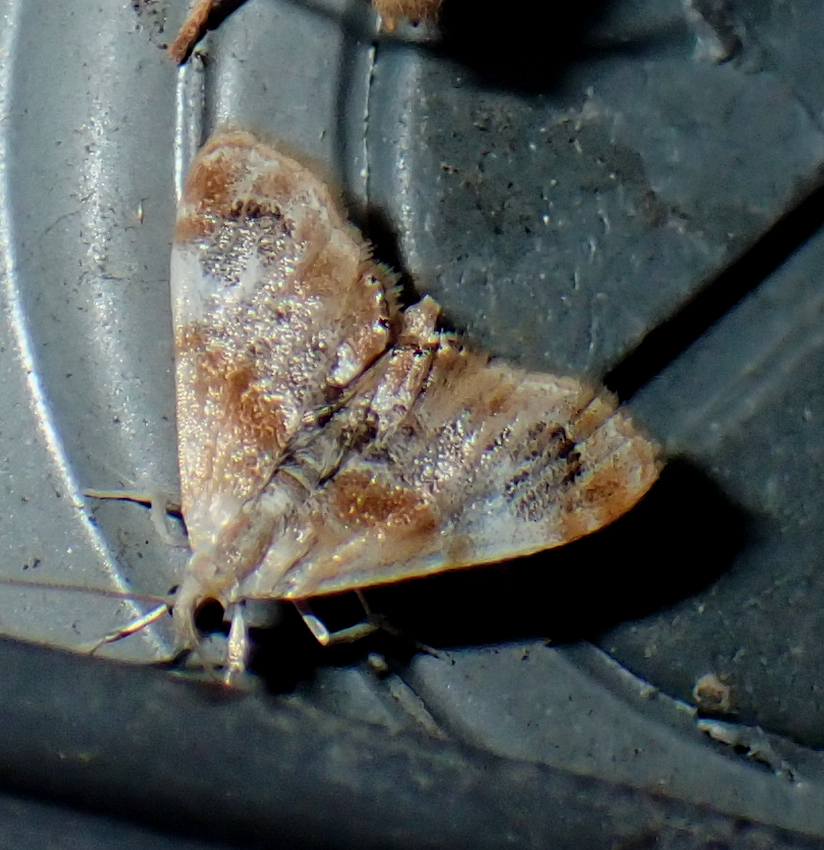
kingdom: Animalia
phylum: Arthropoda
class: Insecta
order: Lepidoptera
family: Crambidae
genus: Dicymolomia
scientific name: Dicymolomia julianalis
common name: Julia's dicymolomia moth
